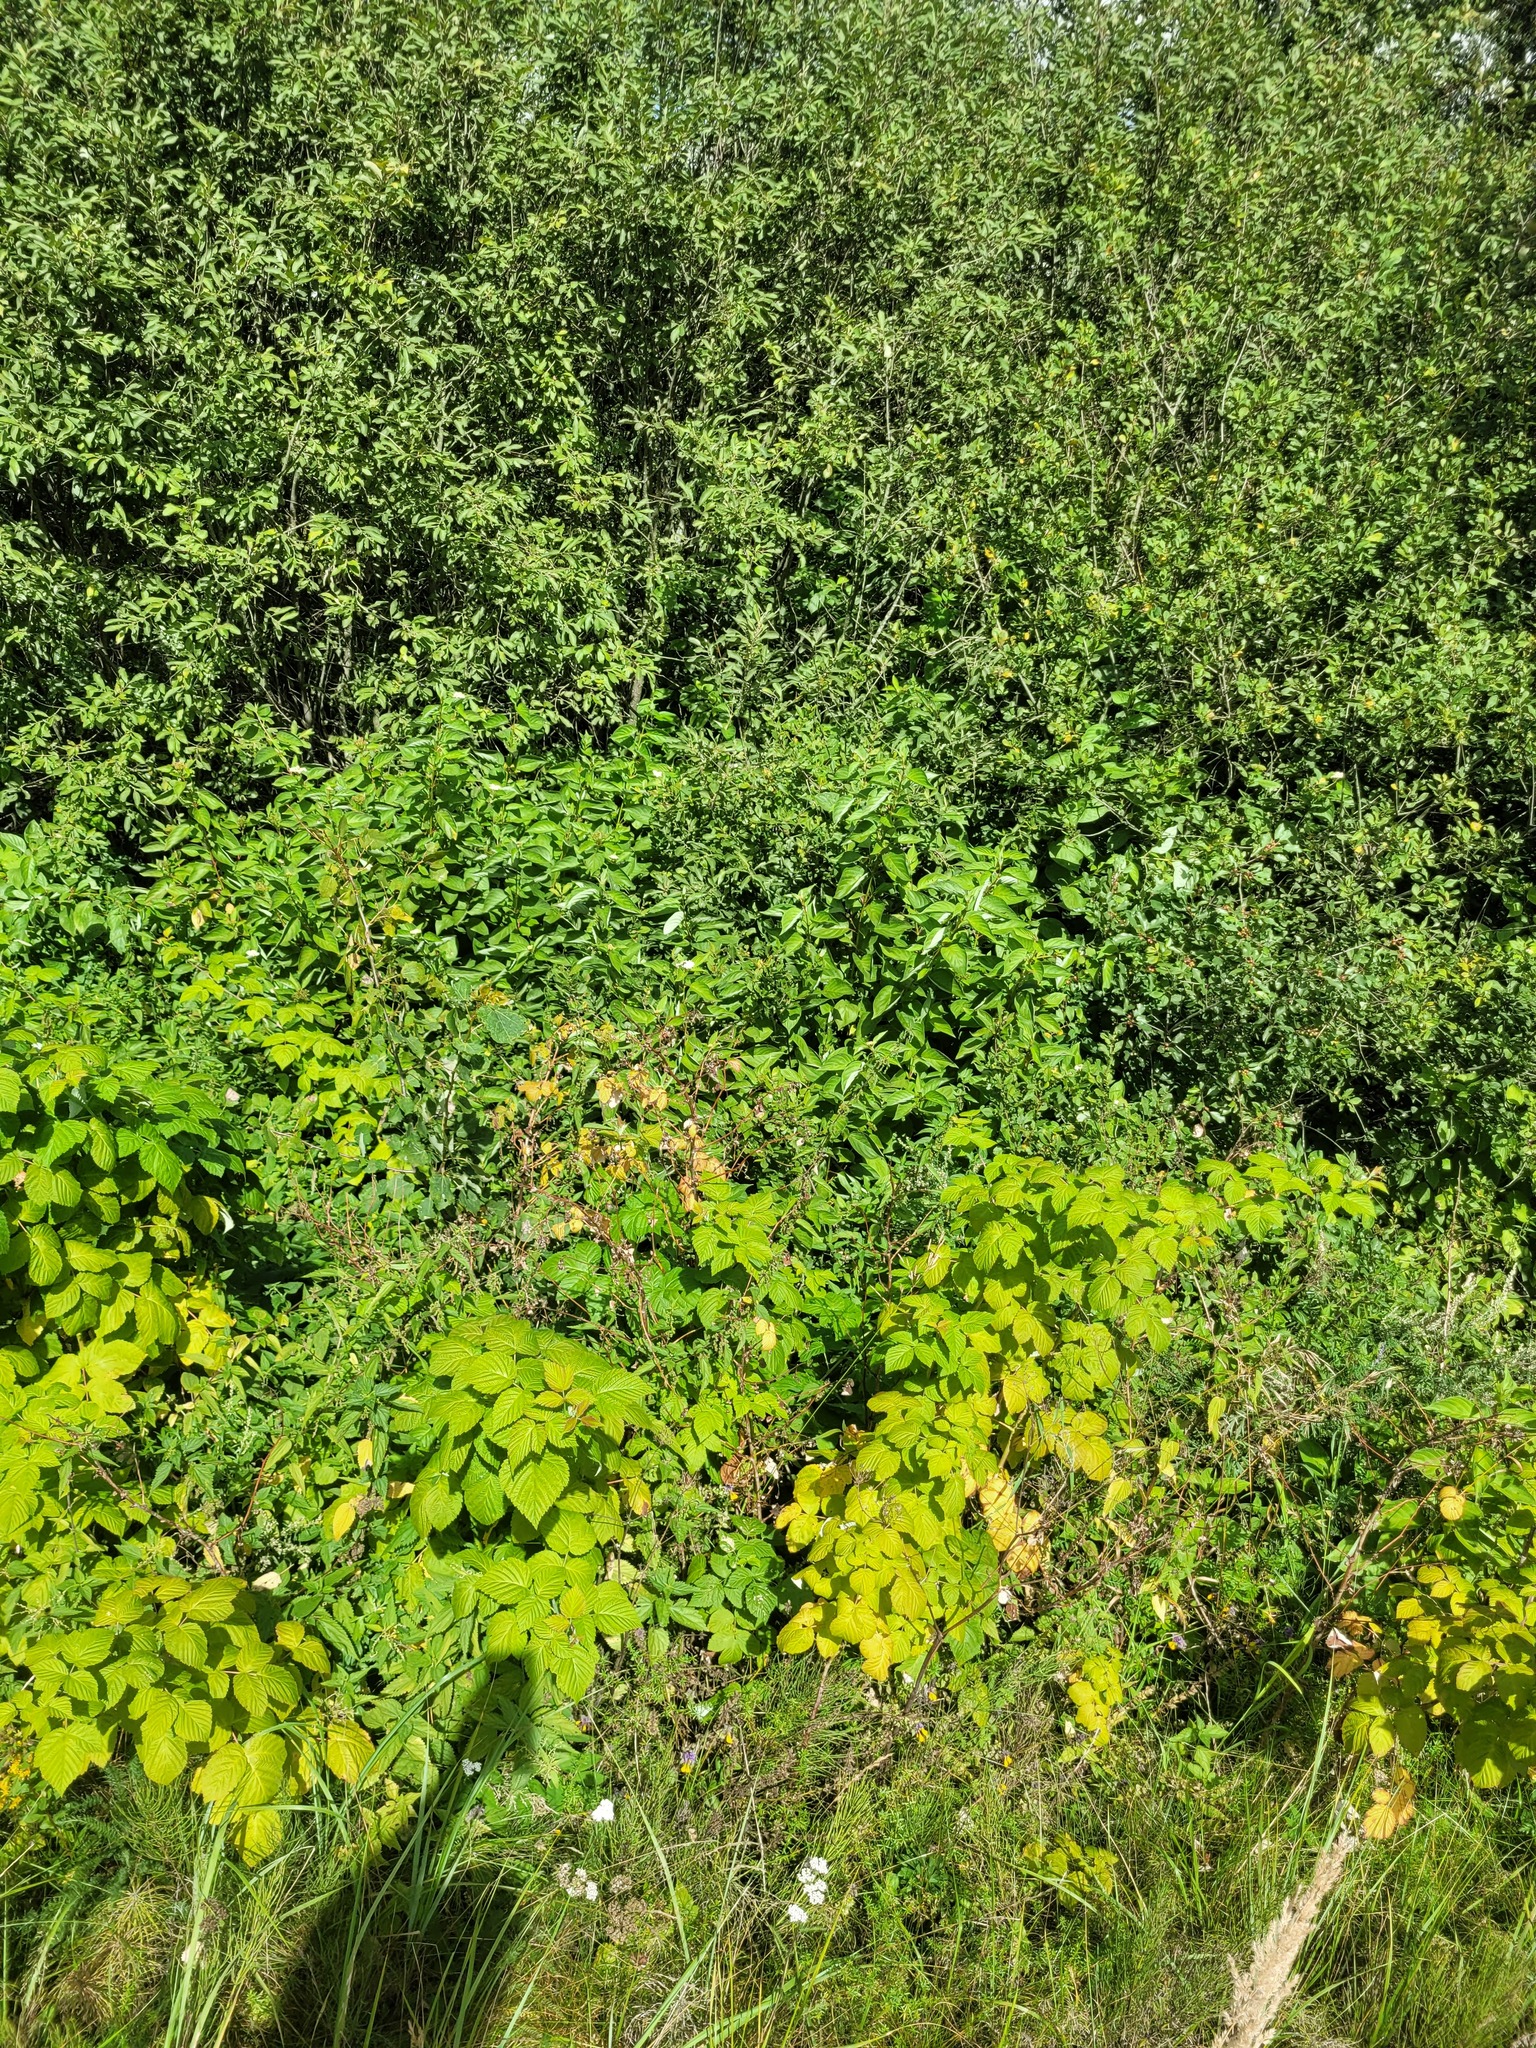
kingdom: Plantae
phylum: Tracheophyta
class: Magnoliopsida
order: Rosales
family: Rosaceae
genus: Rubus
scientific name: Rubus idaeus
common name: Raspberry
